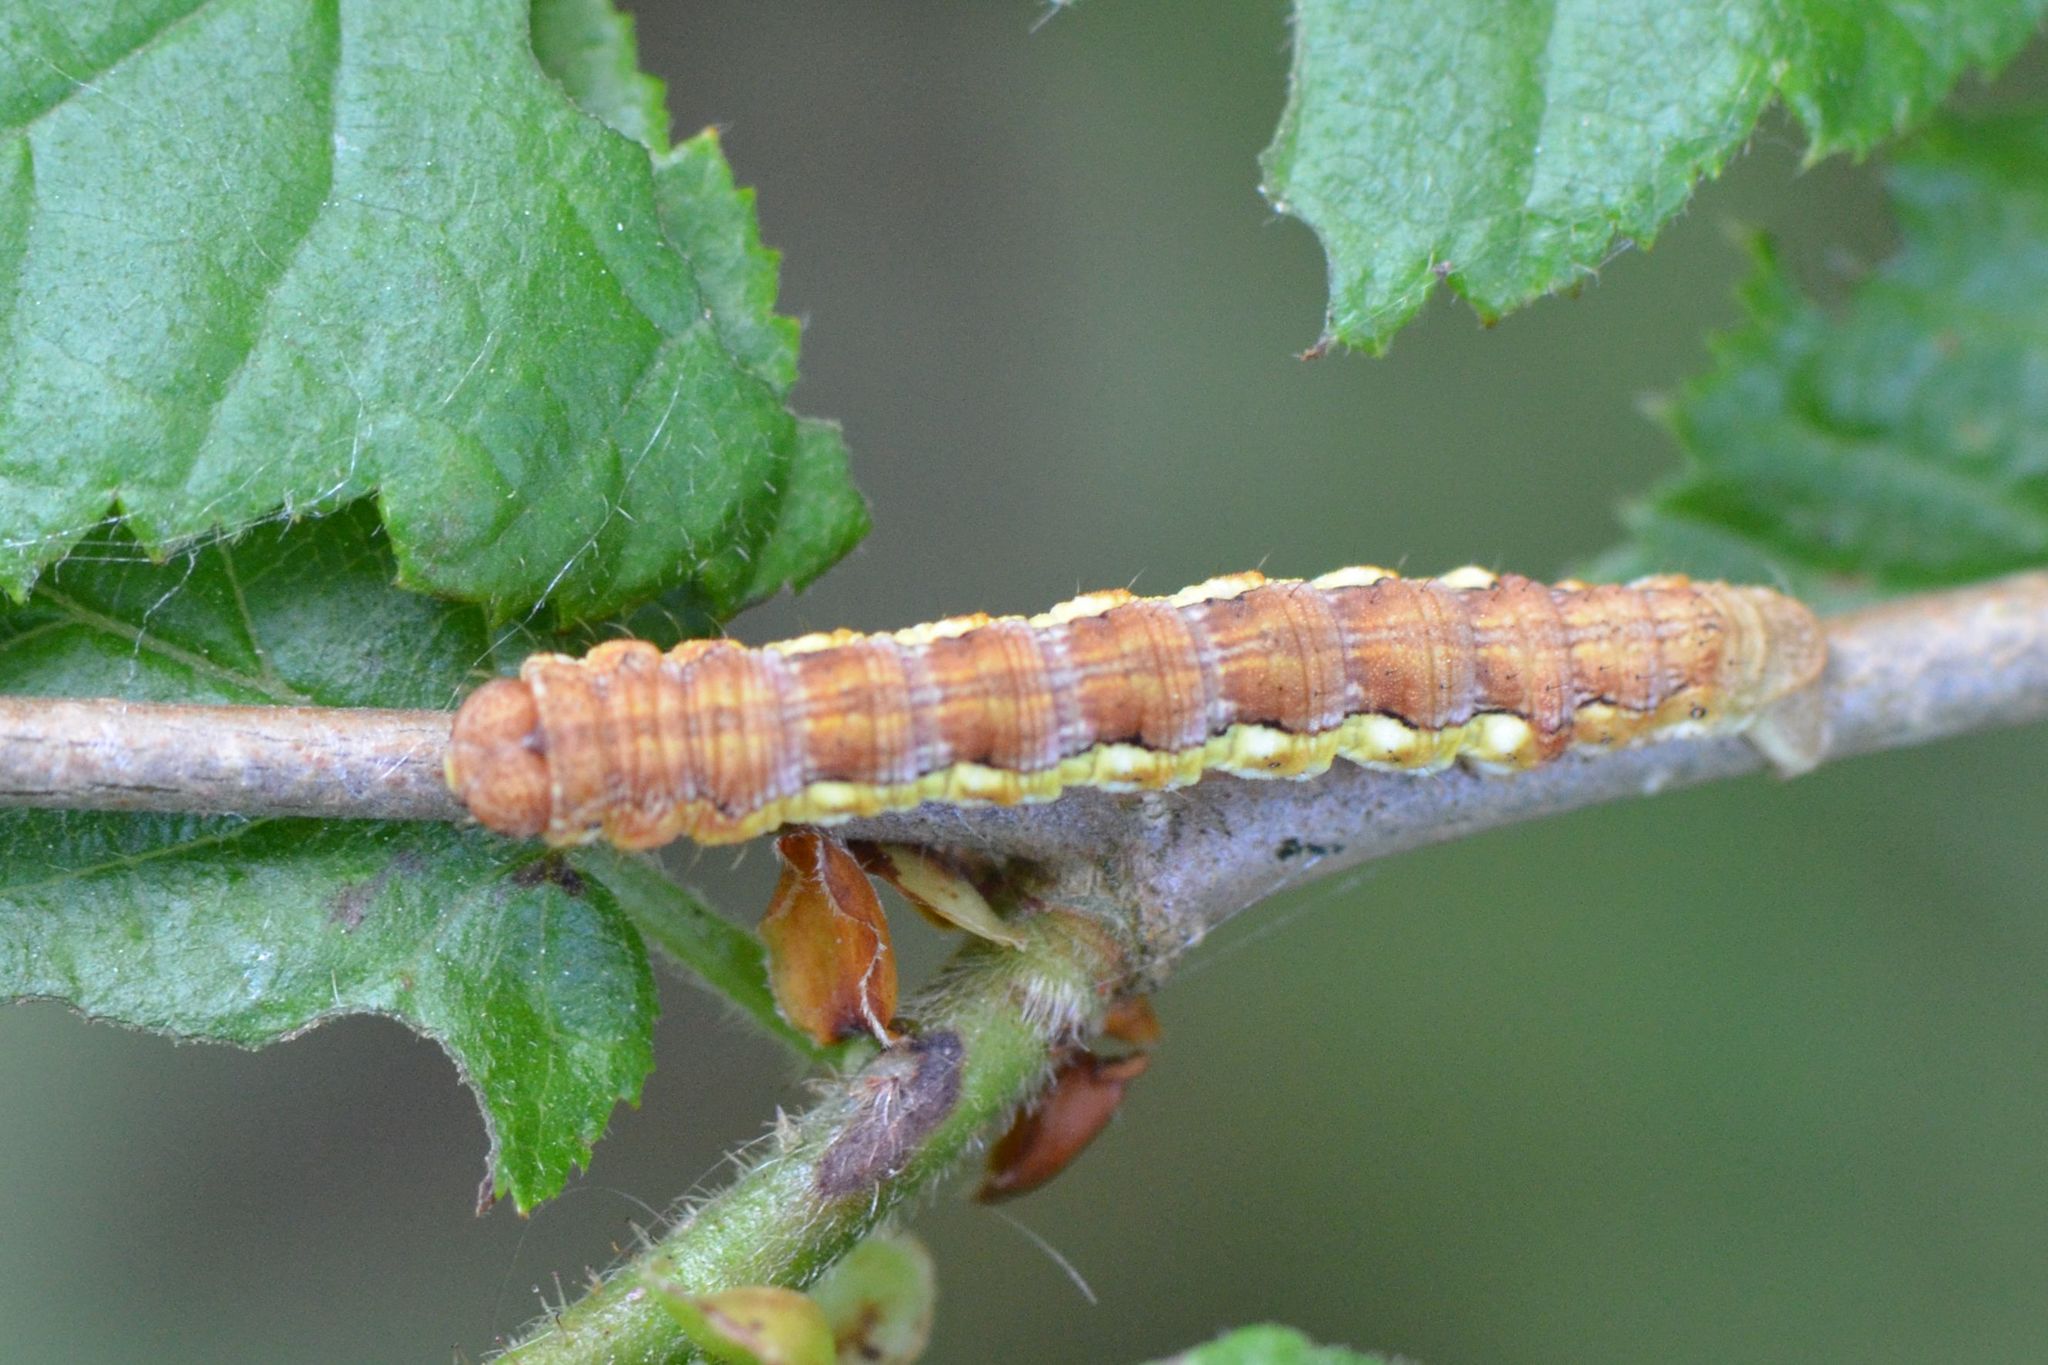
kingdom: Animalia
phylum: Arthropoda
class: Insecta
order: Lepidoptera
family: Geometridae
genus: Erannis
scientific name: Erannis defoliaria
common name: Mottled umber
